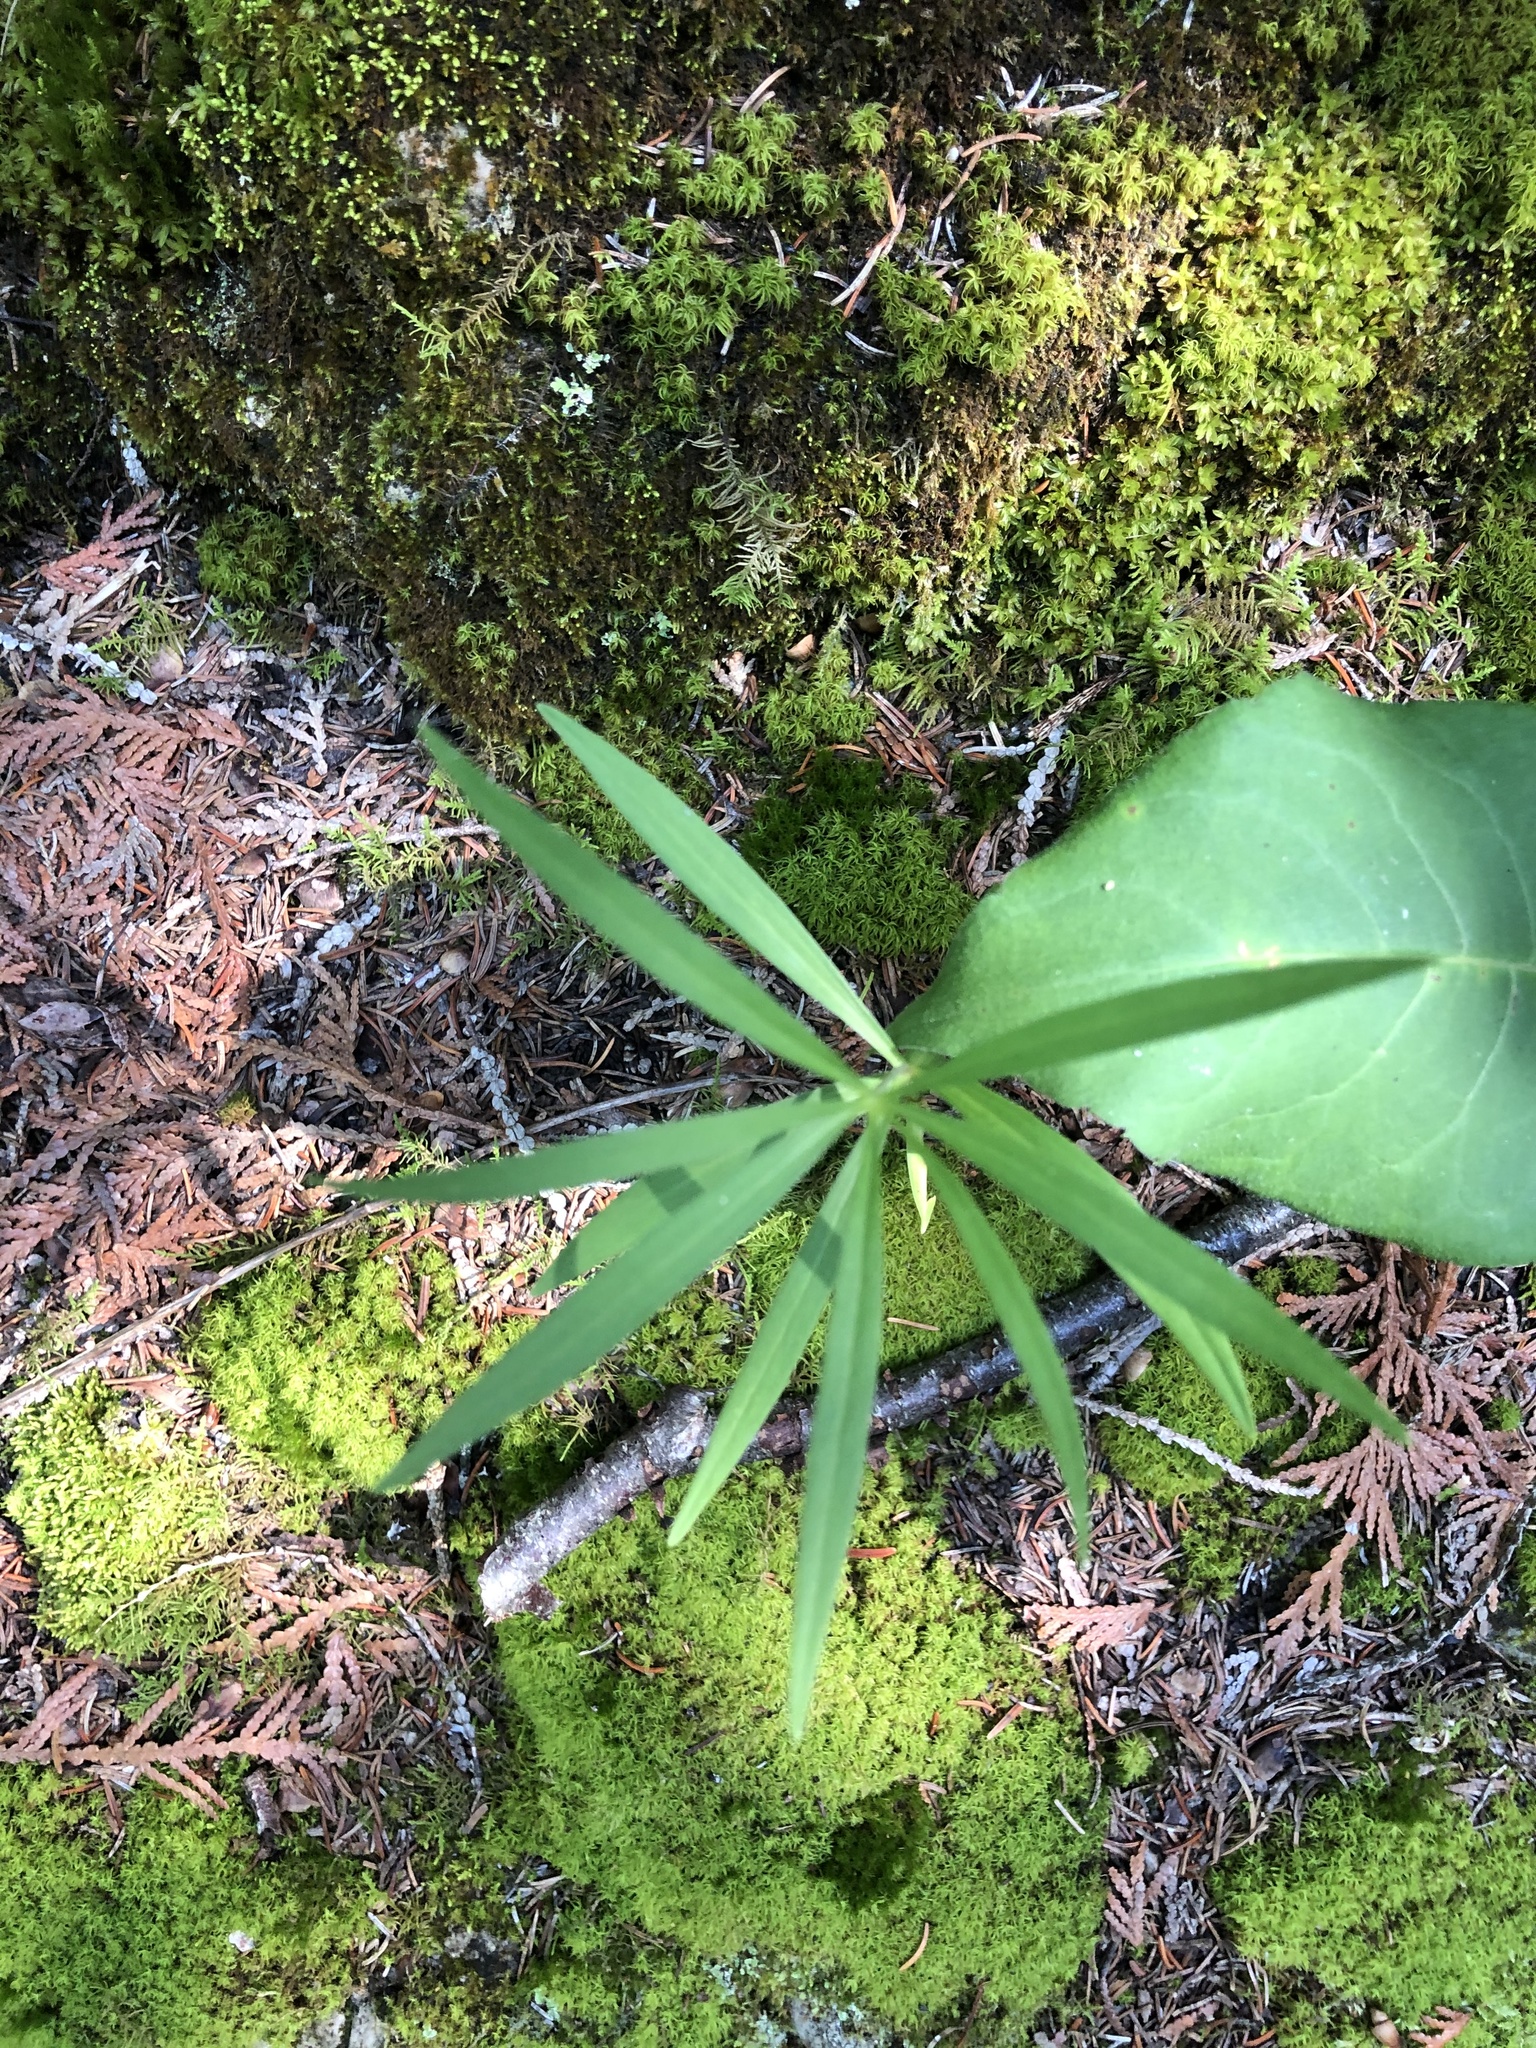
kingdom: Plantae
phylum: Tracheophyta
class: Liliopsida
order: Liliales
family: Liliaceae
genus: Lilium
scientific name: Lilium philadelphicum
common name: Red lily
